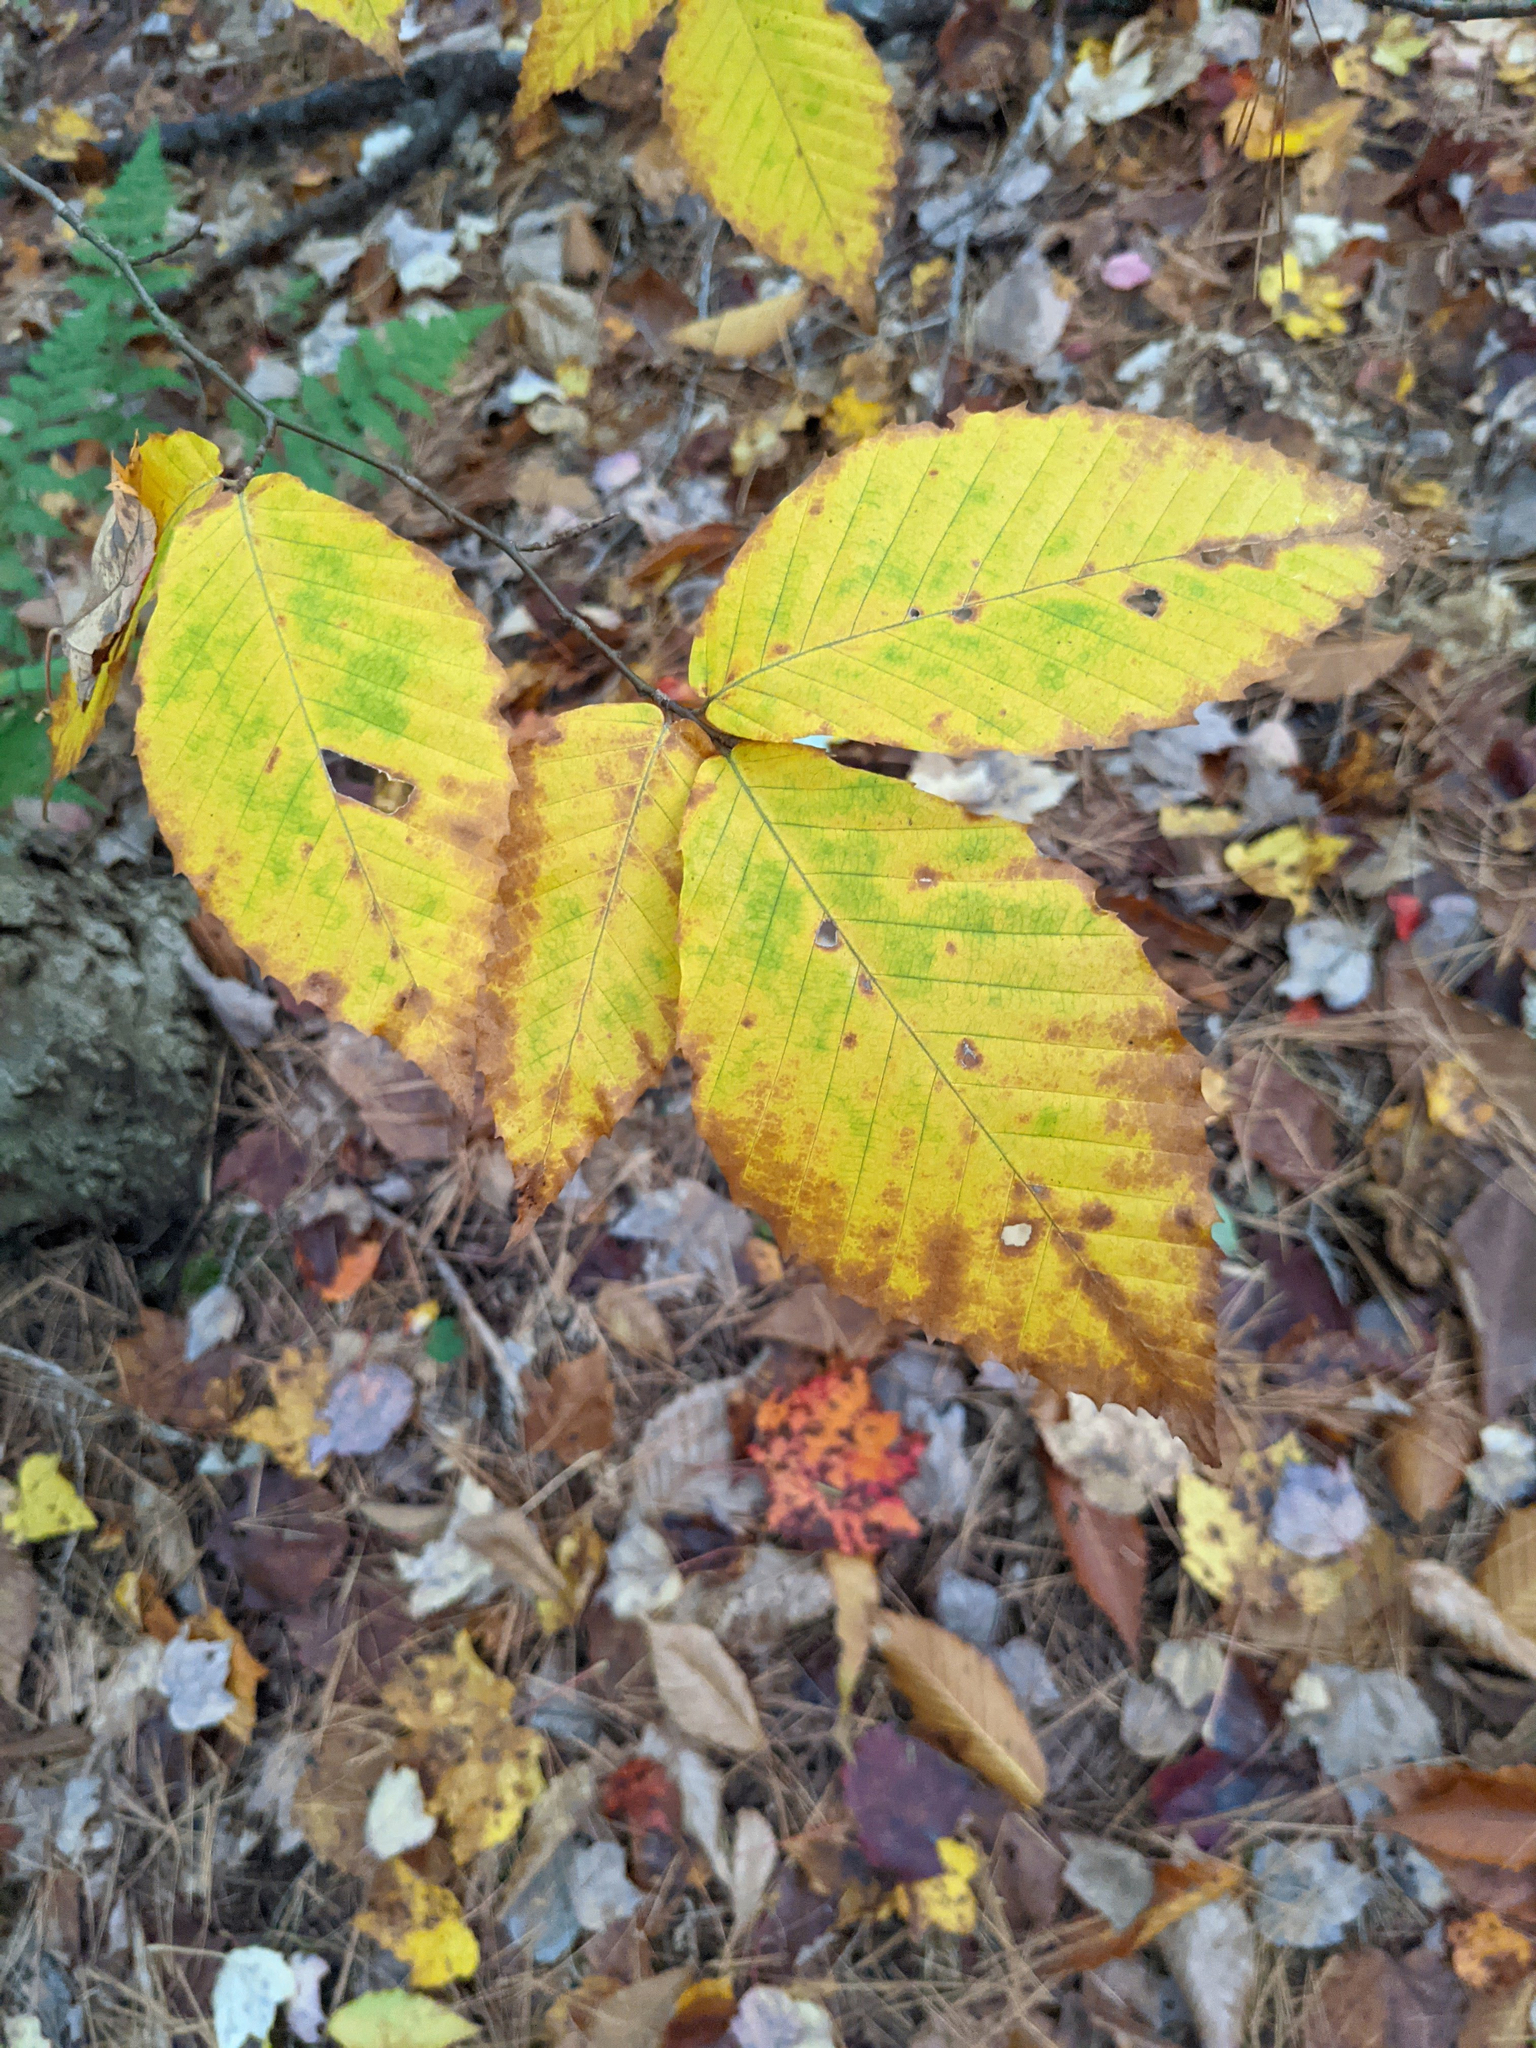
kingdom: Plantae
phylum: Tracheophyta
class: Magnoliopsida
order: Fagales
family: Fagaceae
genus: Fagus
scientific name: Fagus grandifolia
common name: American beech
